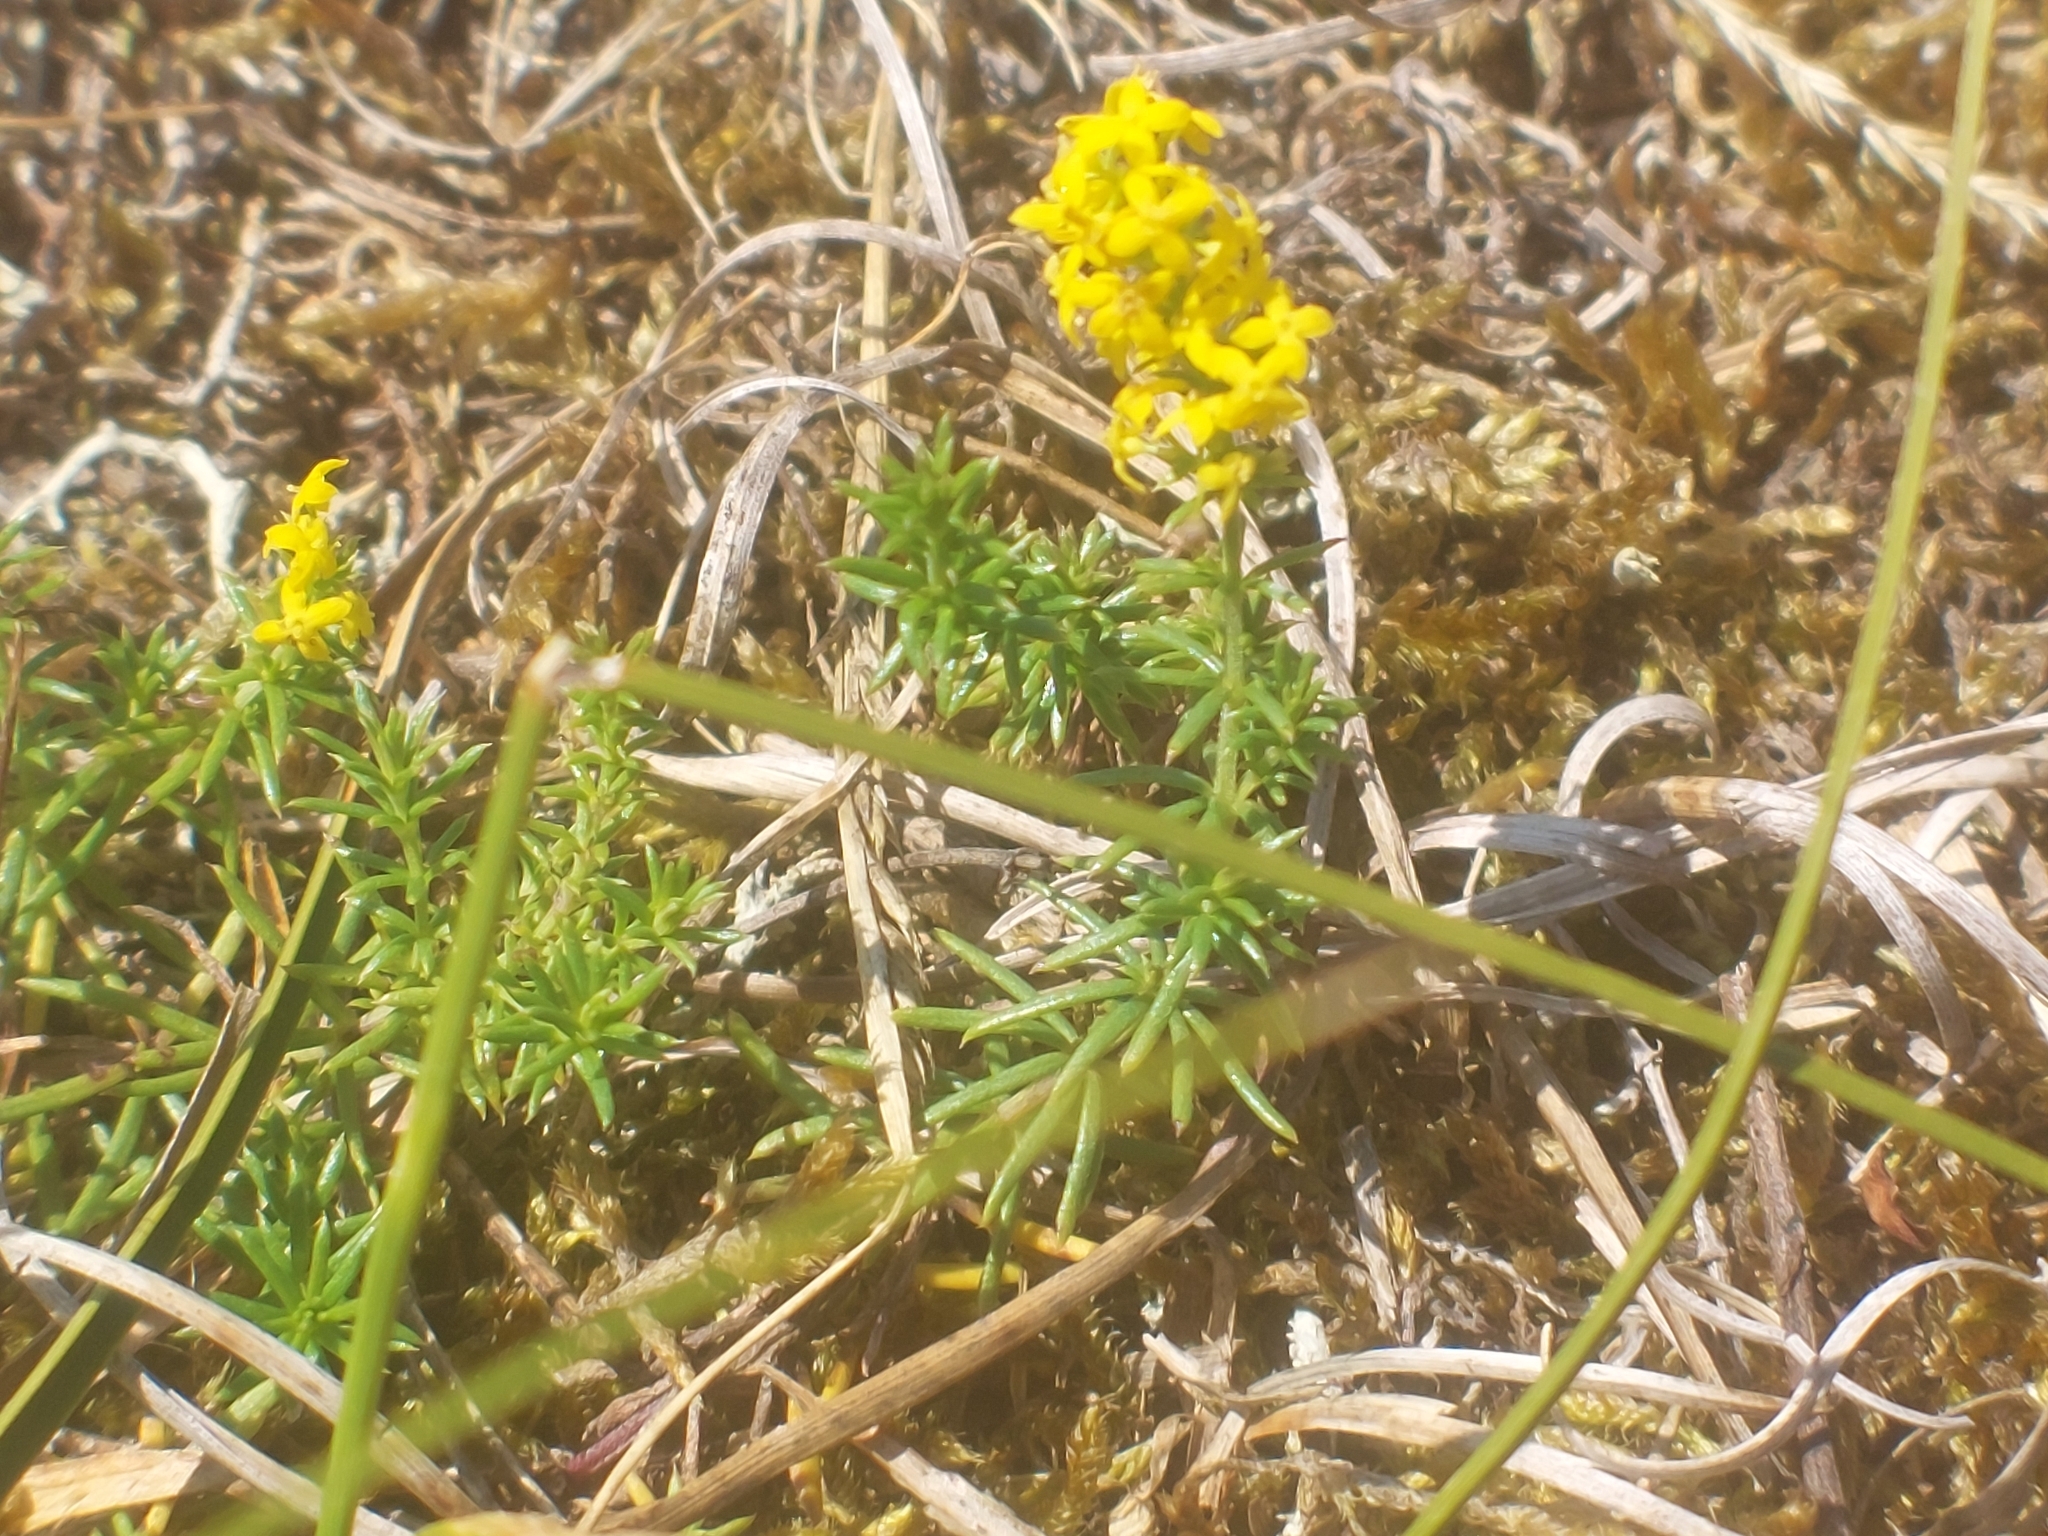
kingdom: Plantae
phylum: Tracheophyta
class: Magnoliopsida
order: Gentianales
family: Rubiaceae
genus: Galium
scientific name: Galium verum
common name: Lady's bedstraw
